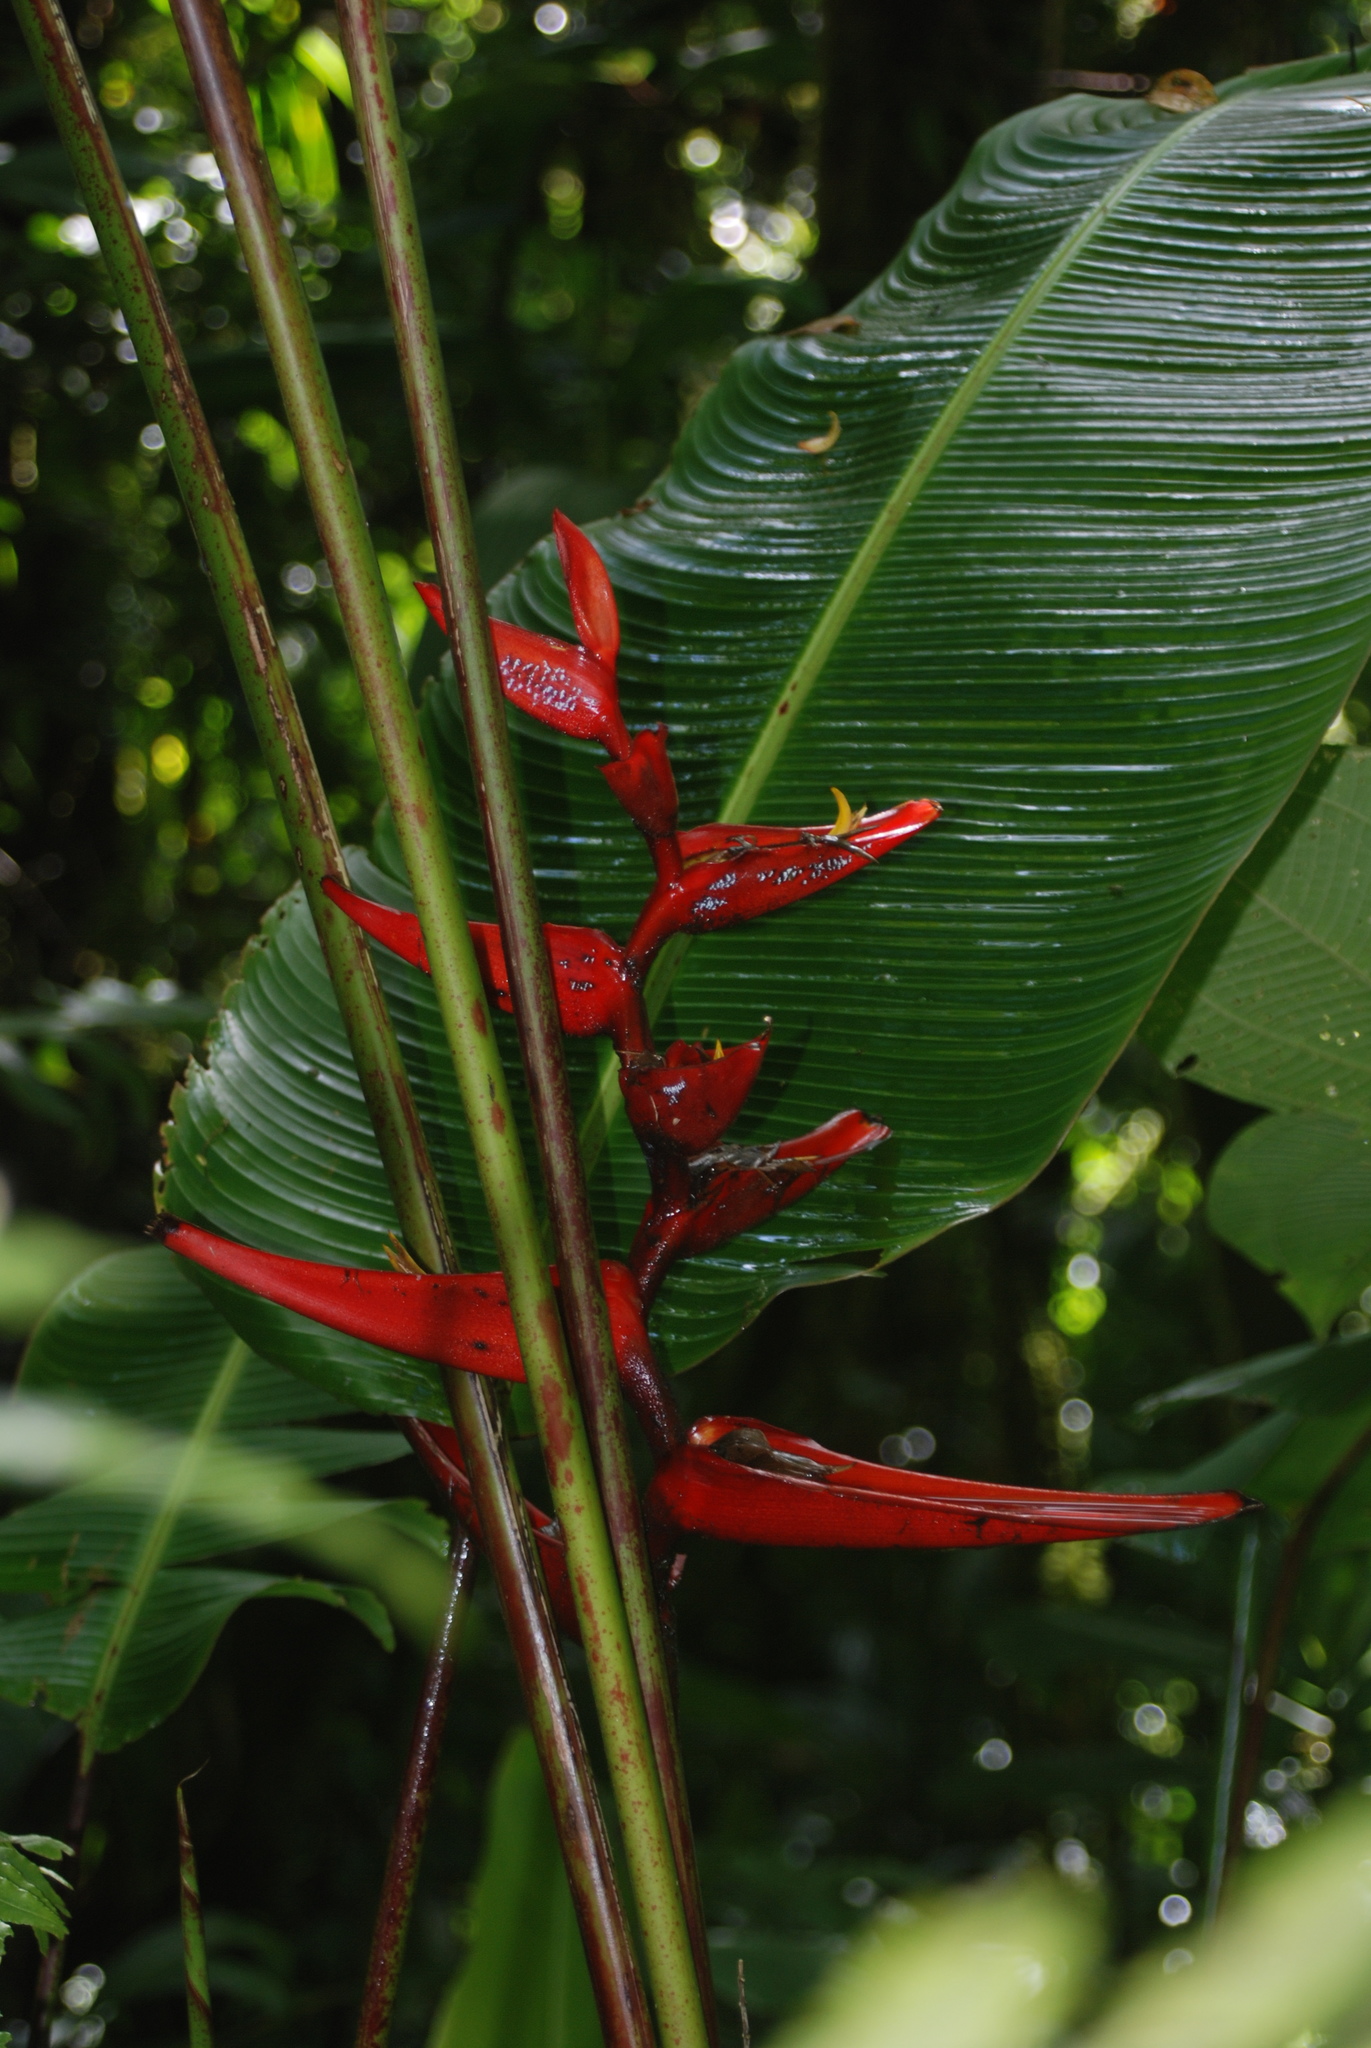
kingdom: Plantae
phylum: Tracheophyta
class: Liliopsida
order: Zingiberales
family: Heliconiaceae
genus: Heliconia
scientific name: Heliconia monteverdensis
